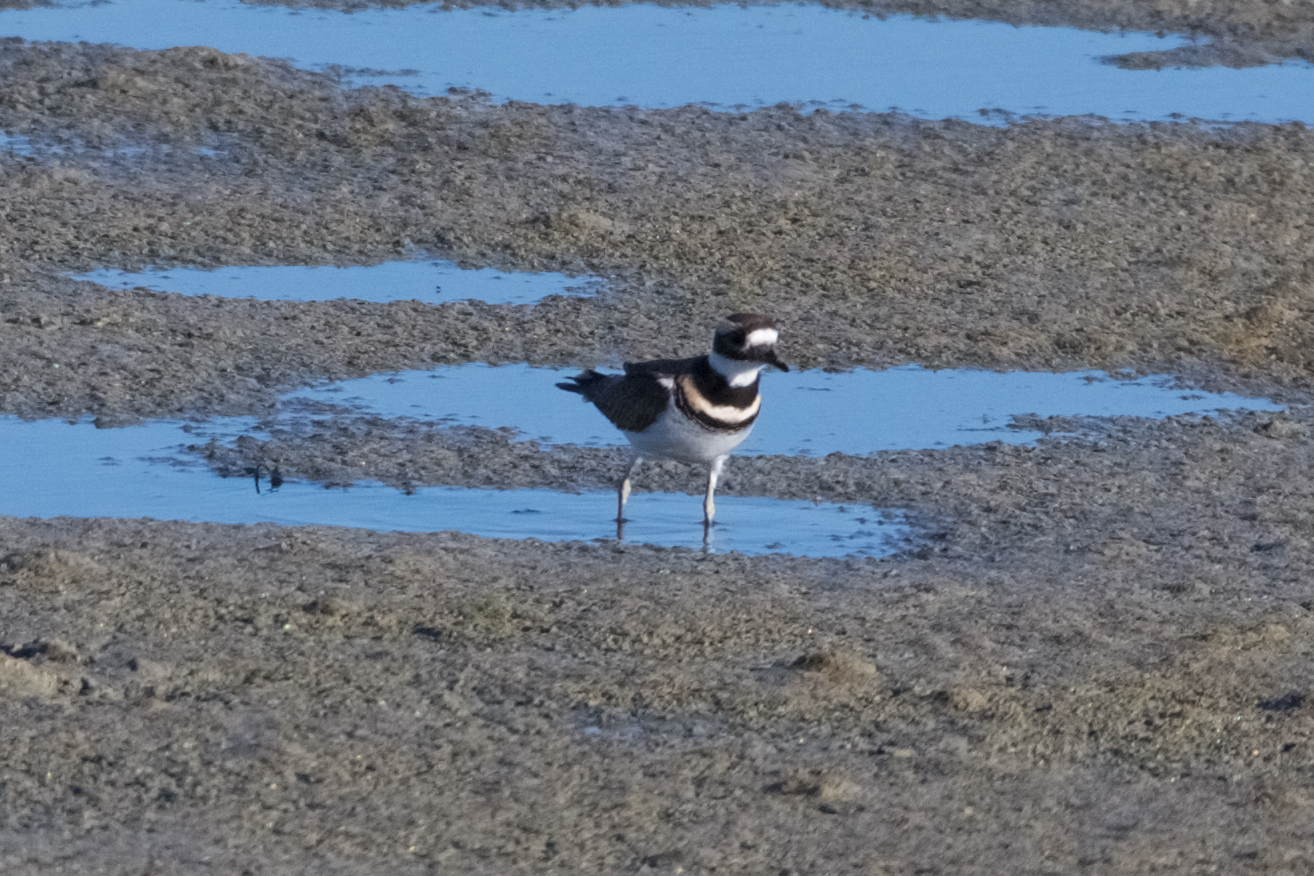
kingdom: Animalia
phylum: Chordata
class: Aves
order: Charadriiformes
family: Charadriidae
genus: Charadrius
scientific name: Charadrius vociferus
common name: Killdeer
